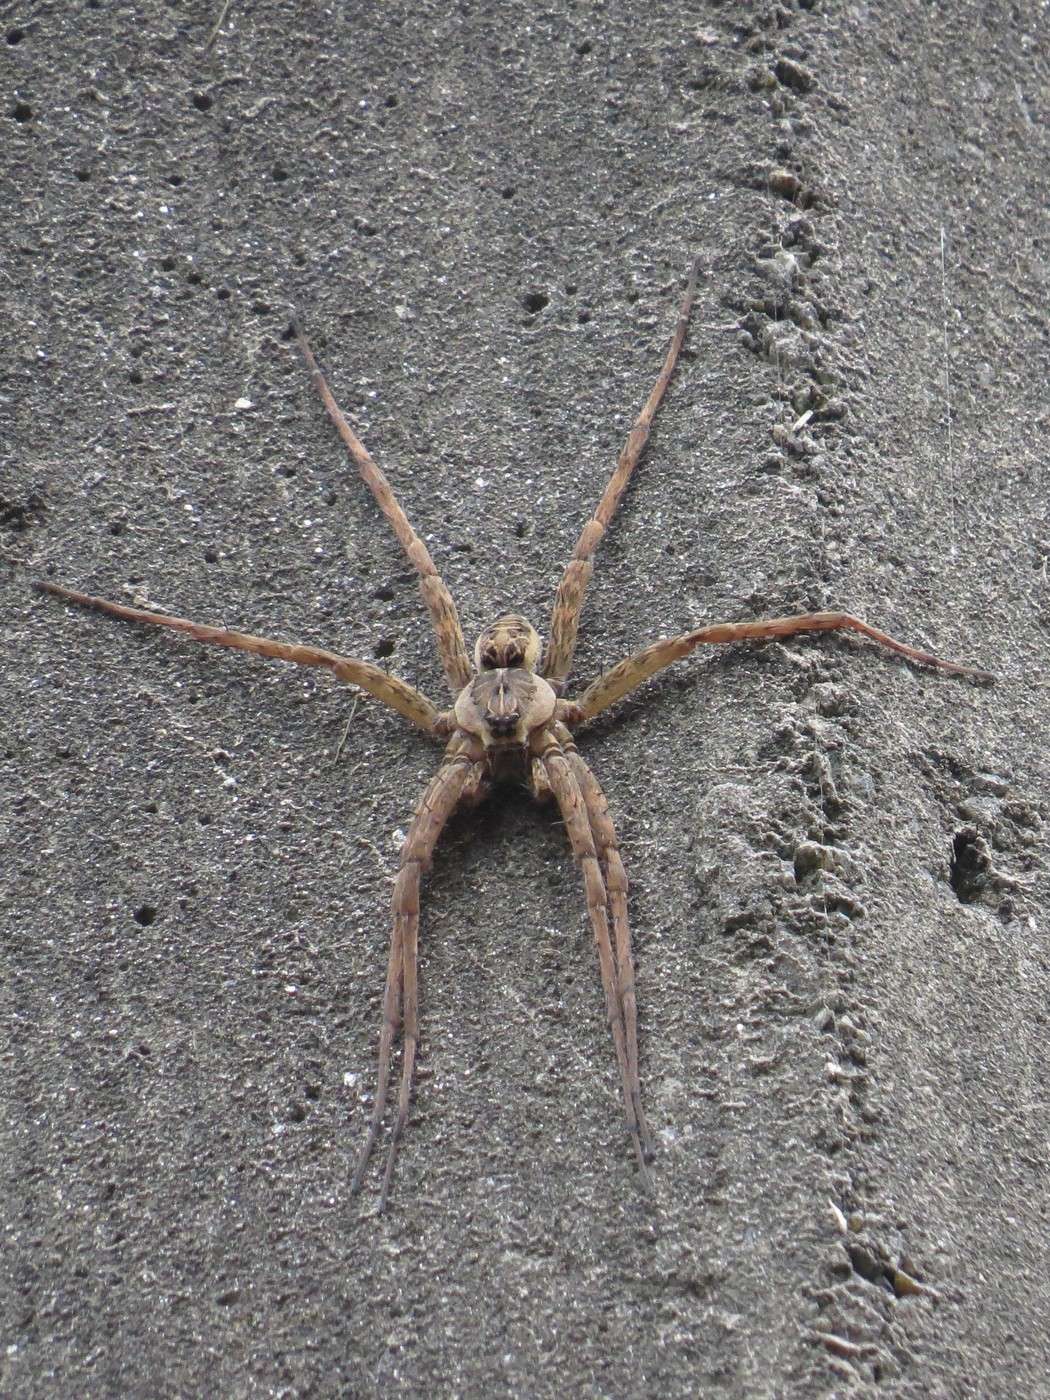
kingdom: Animalia
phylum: Arthropoda
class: Arachnida
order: Araneae
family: Pisauridae
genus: Dolomedes
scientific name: Dolomedes scriptus
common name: Striped fishing spider
